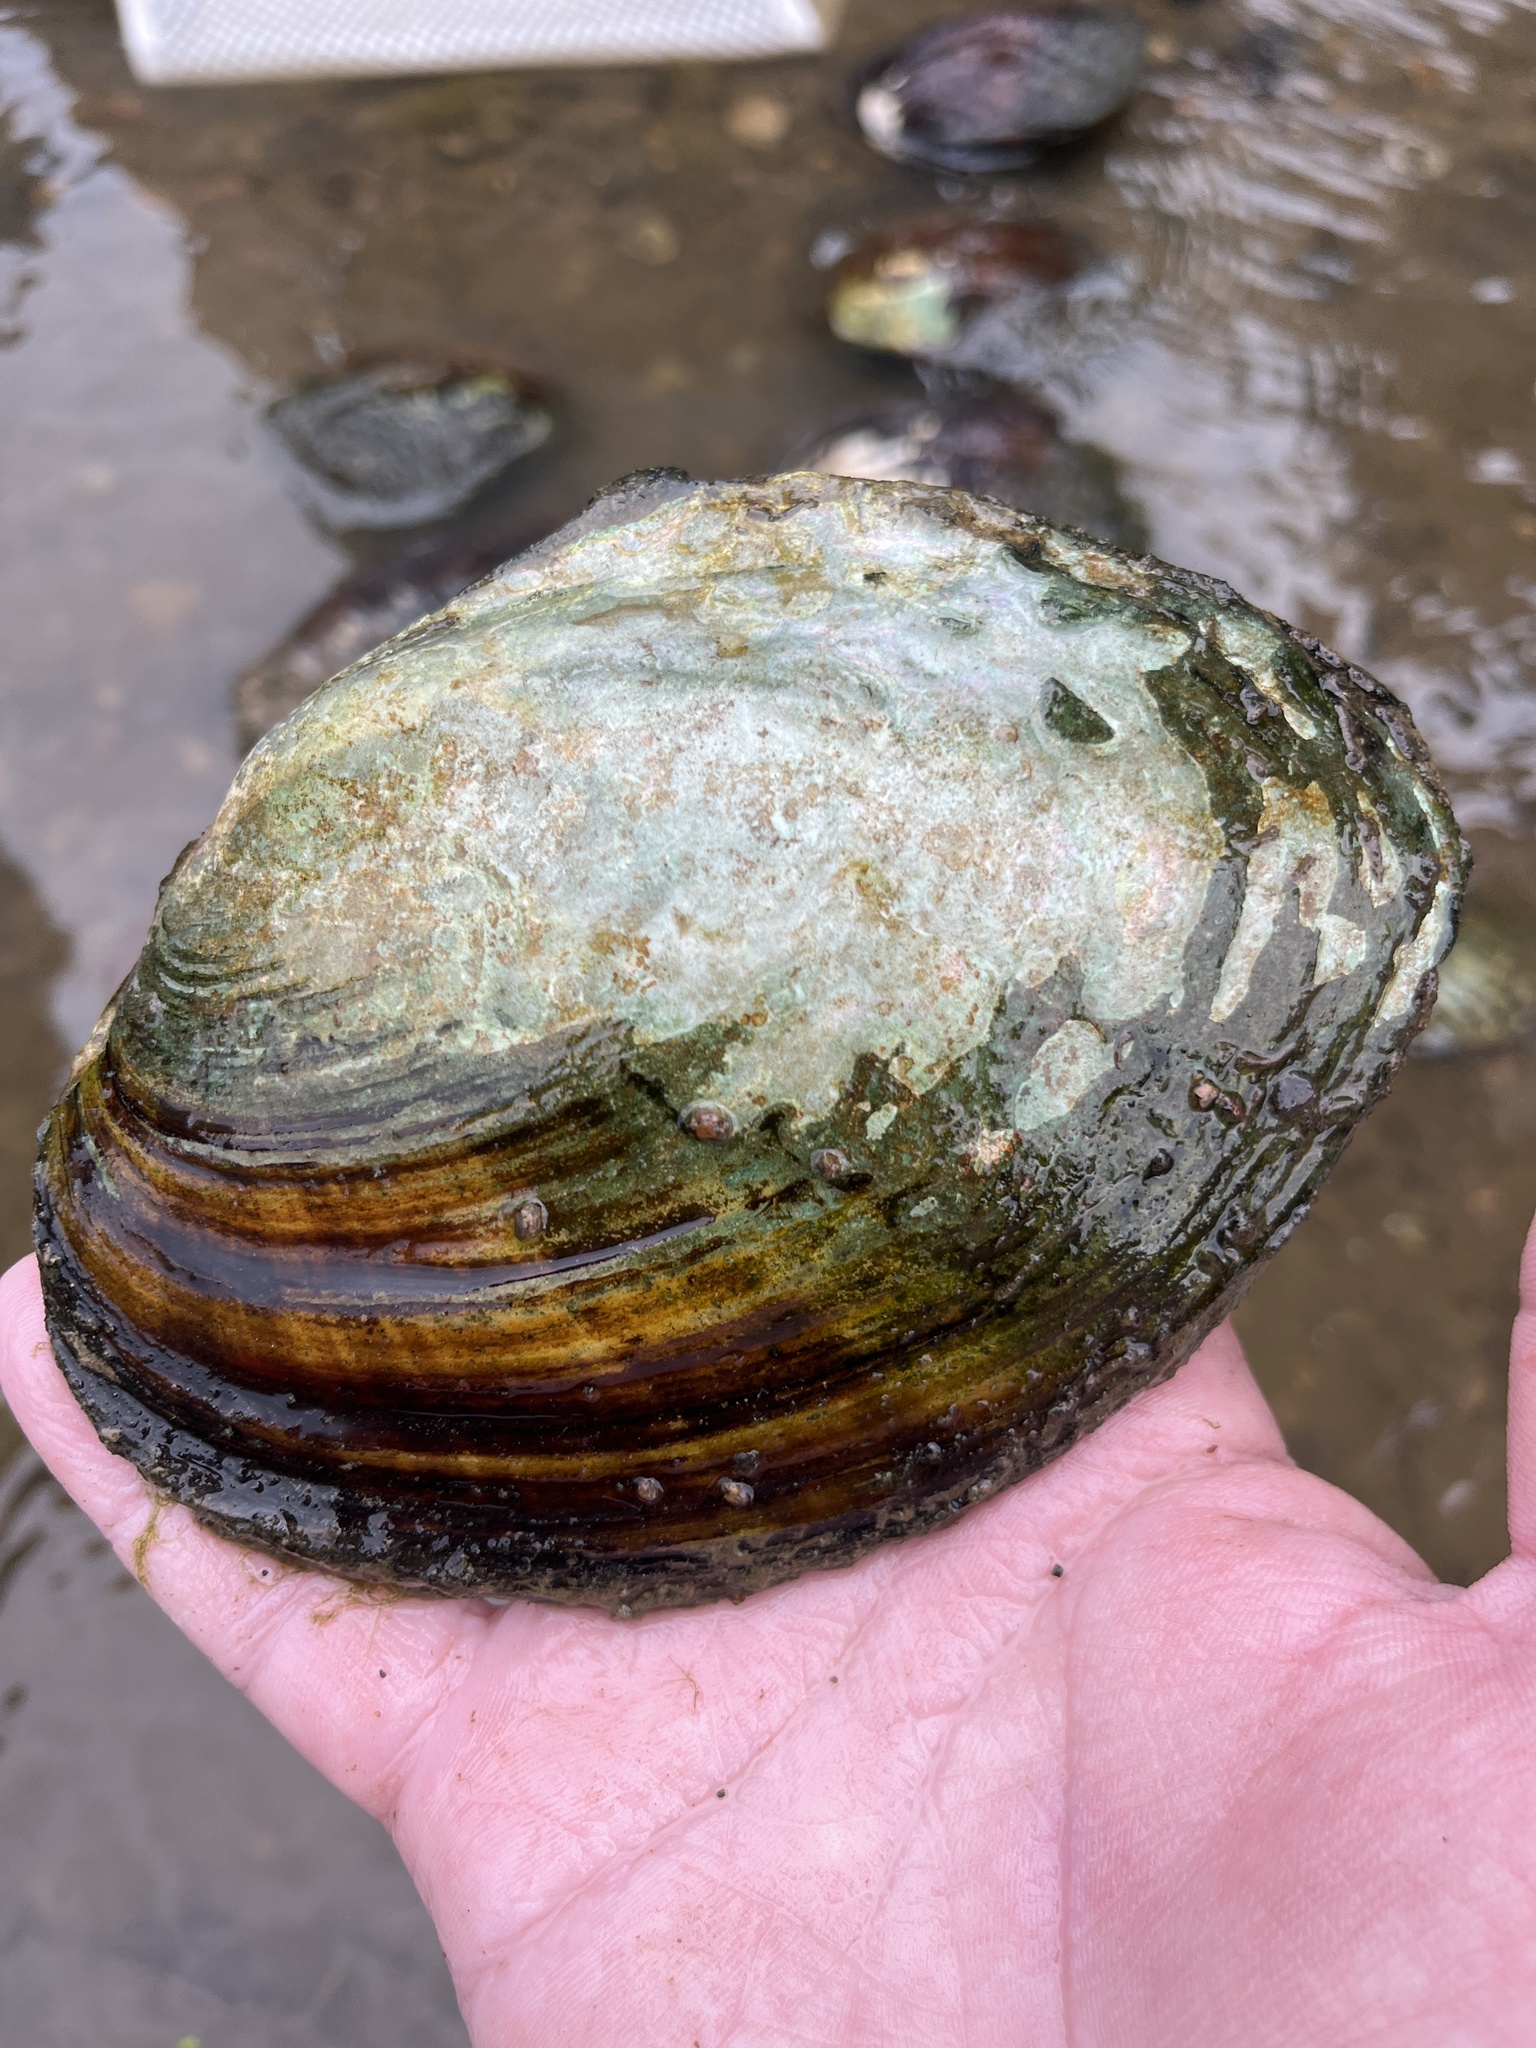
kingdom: Animalia
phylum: Mollusca
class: Bivalvia
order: Unionida
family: Unionidae
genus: Lasmigona
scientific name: Lasmigona complanata
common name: White heelsplitter
